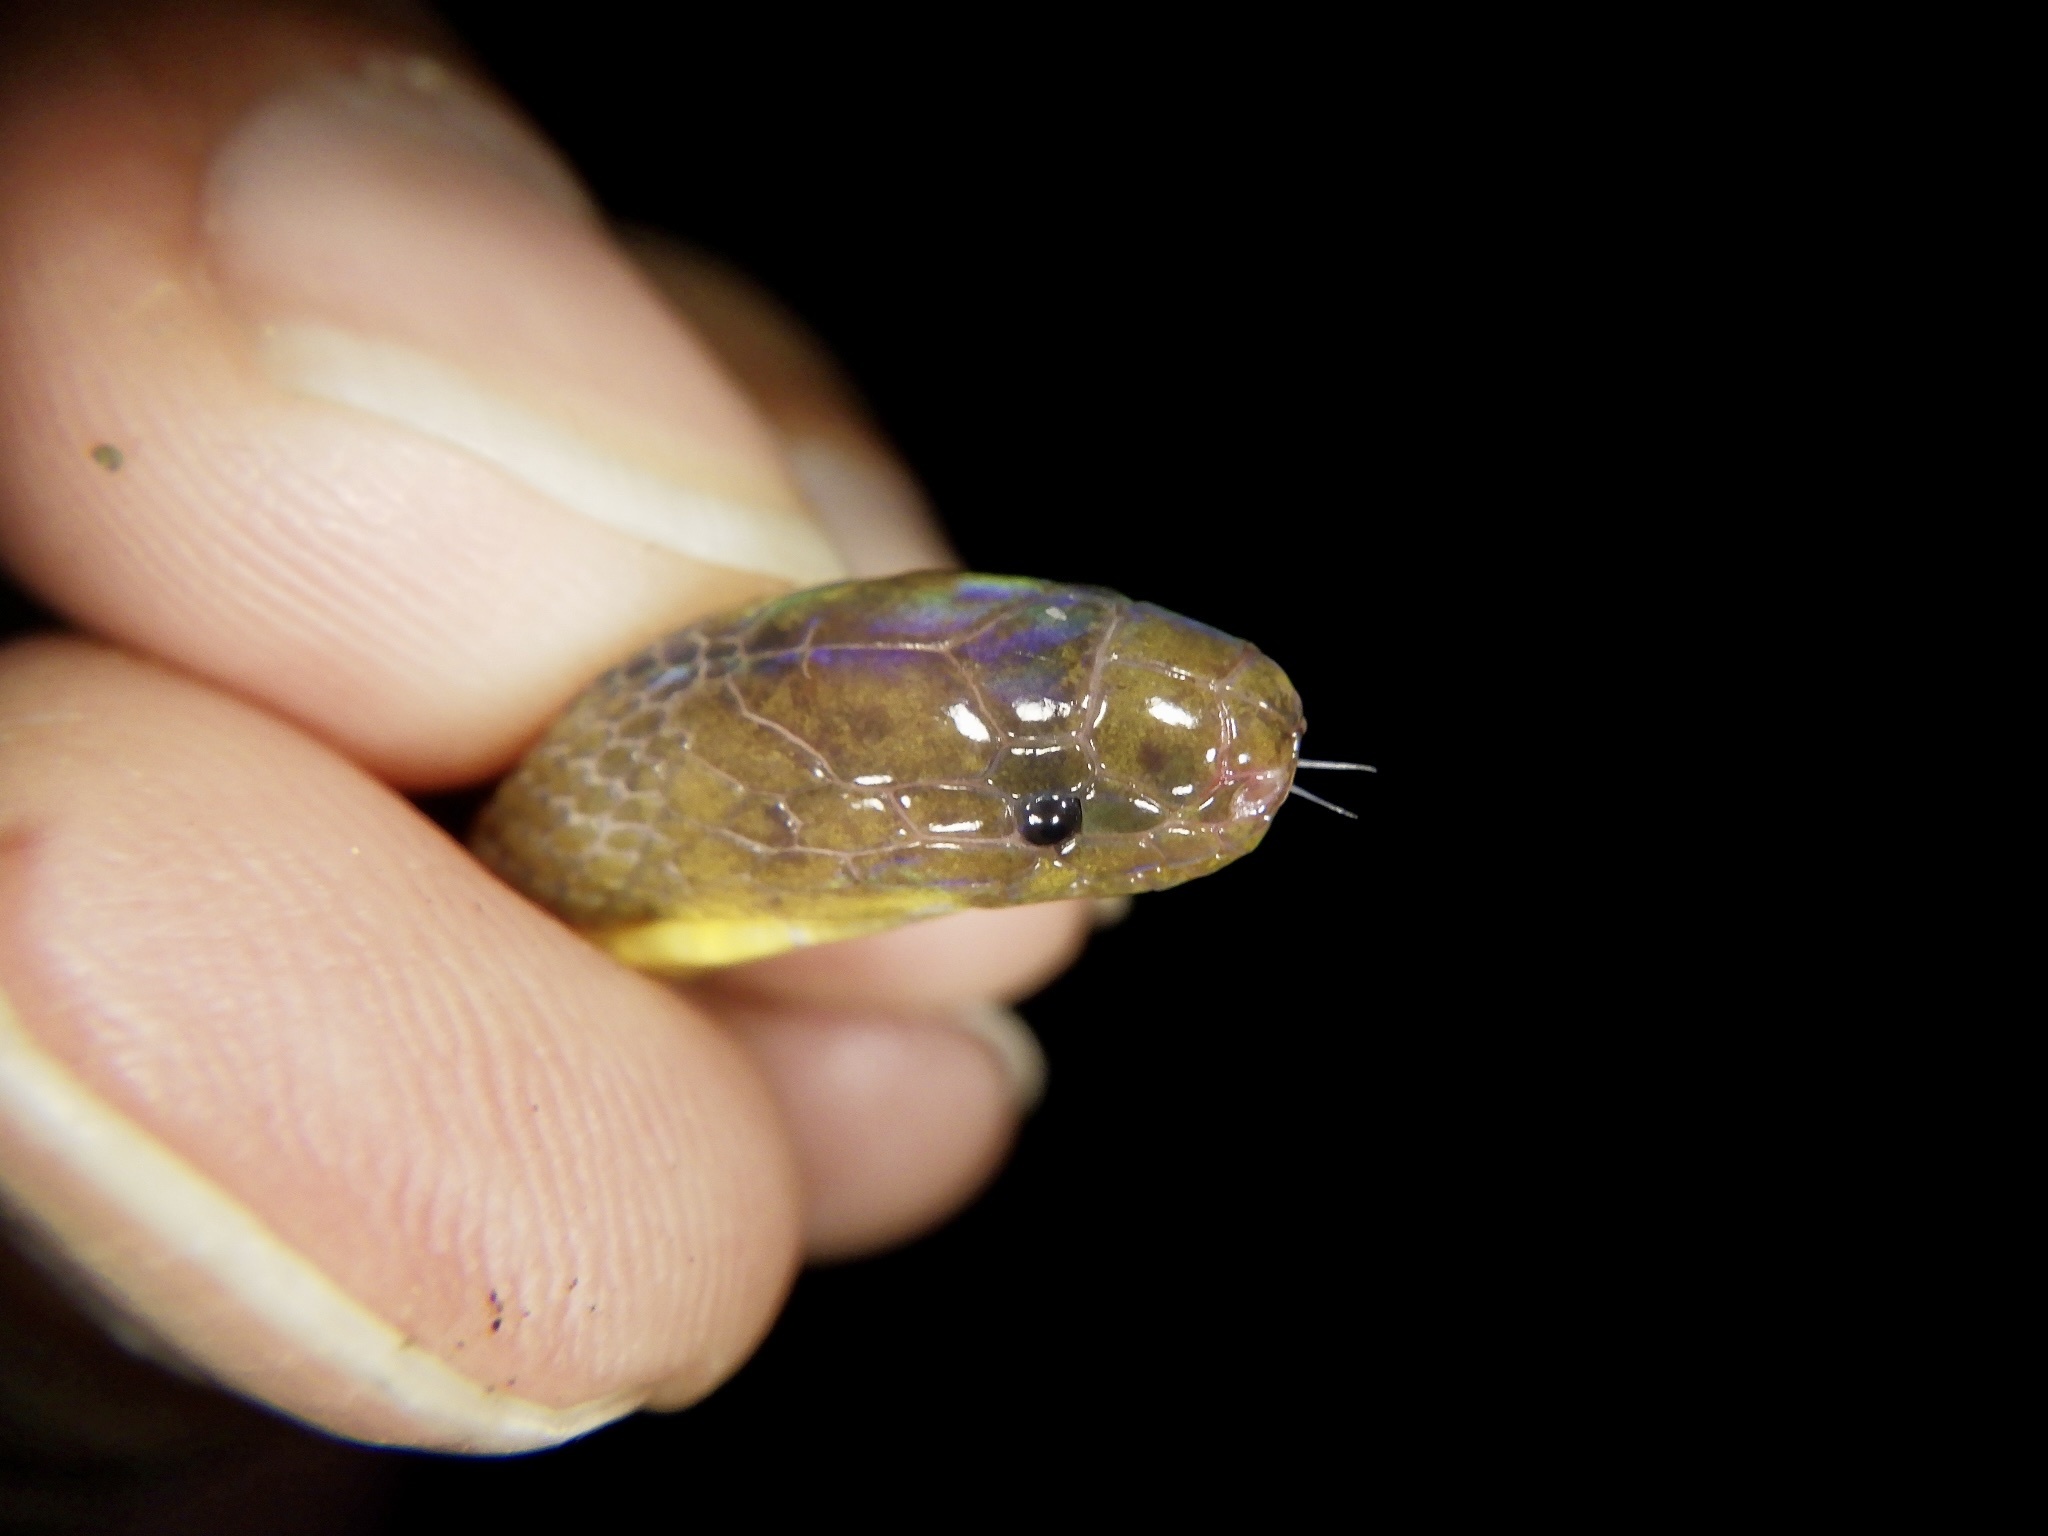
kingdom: Animalia
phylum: Chordata
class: Squamata
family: Xenodermidae
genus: Achalinus
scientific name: Achalinus spinalis
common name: Grey burrowing snake
